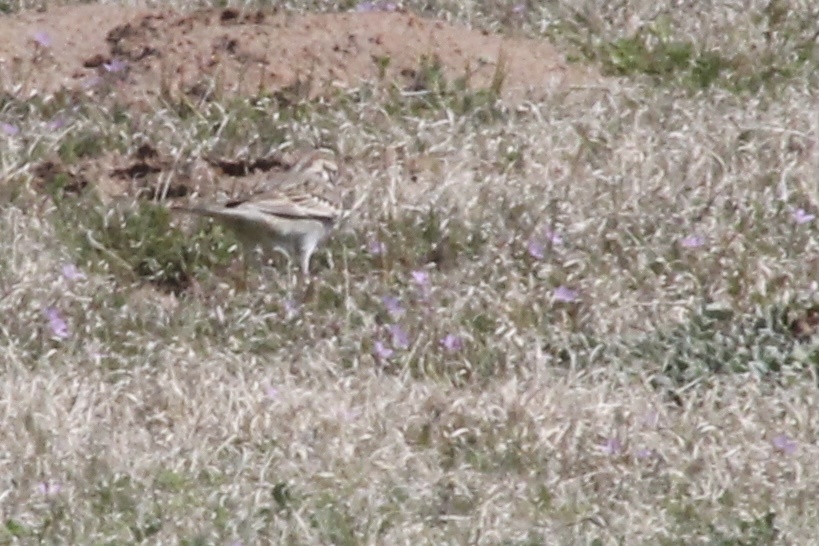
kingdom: Animalia
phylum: Chordata
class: Aves
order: Passeriformes
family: Passerellidae
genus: Chondestes
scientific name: Chondestes grammacus
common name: Lark sparrow
